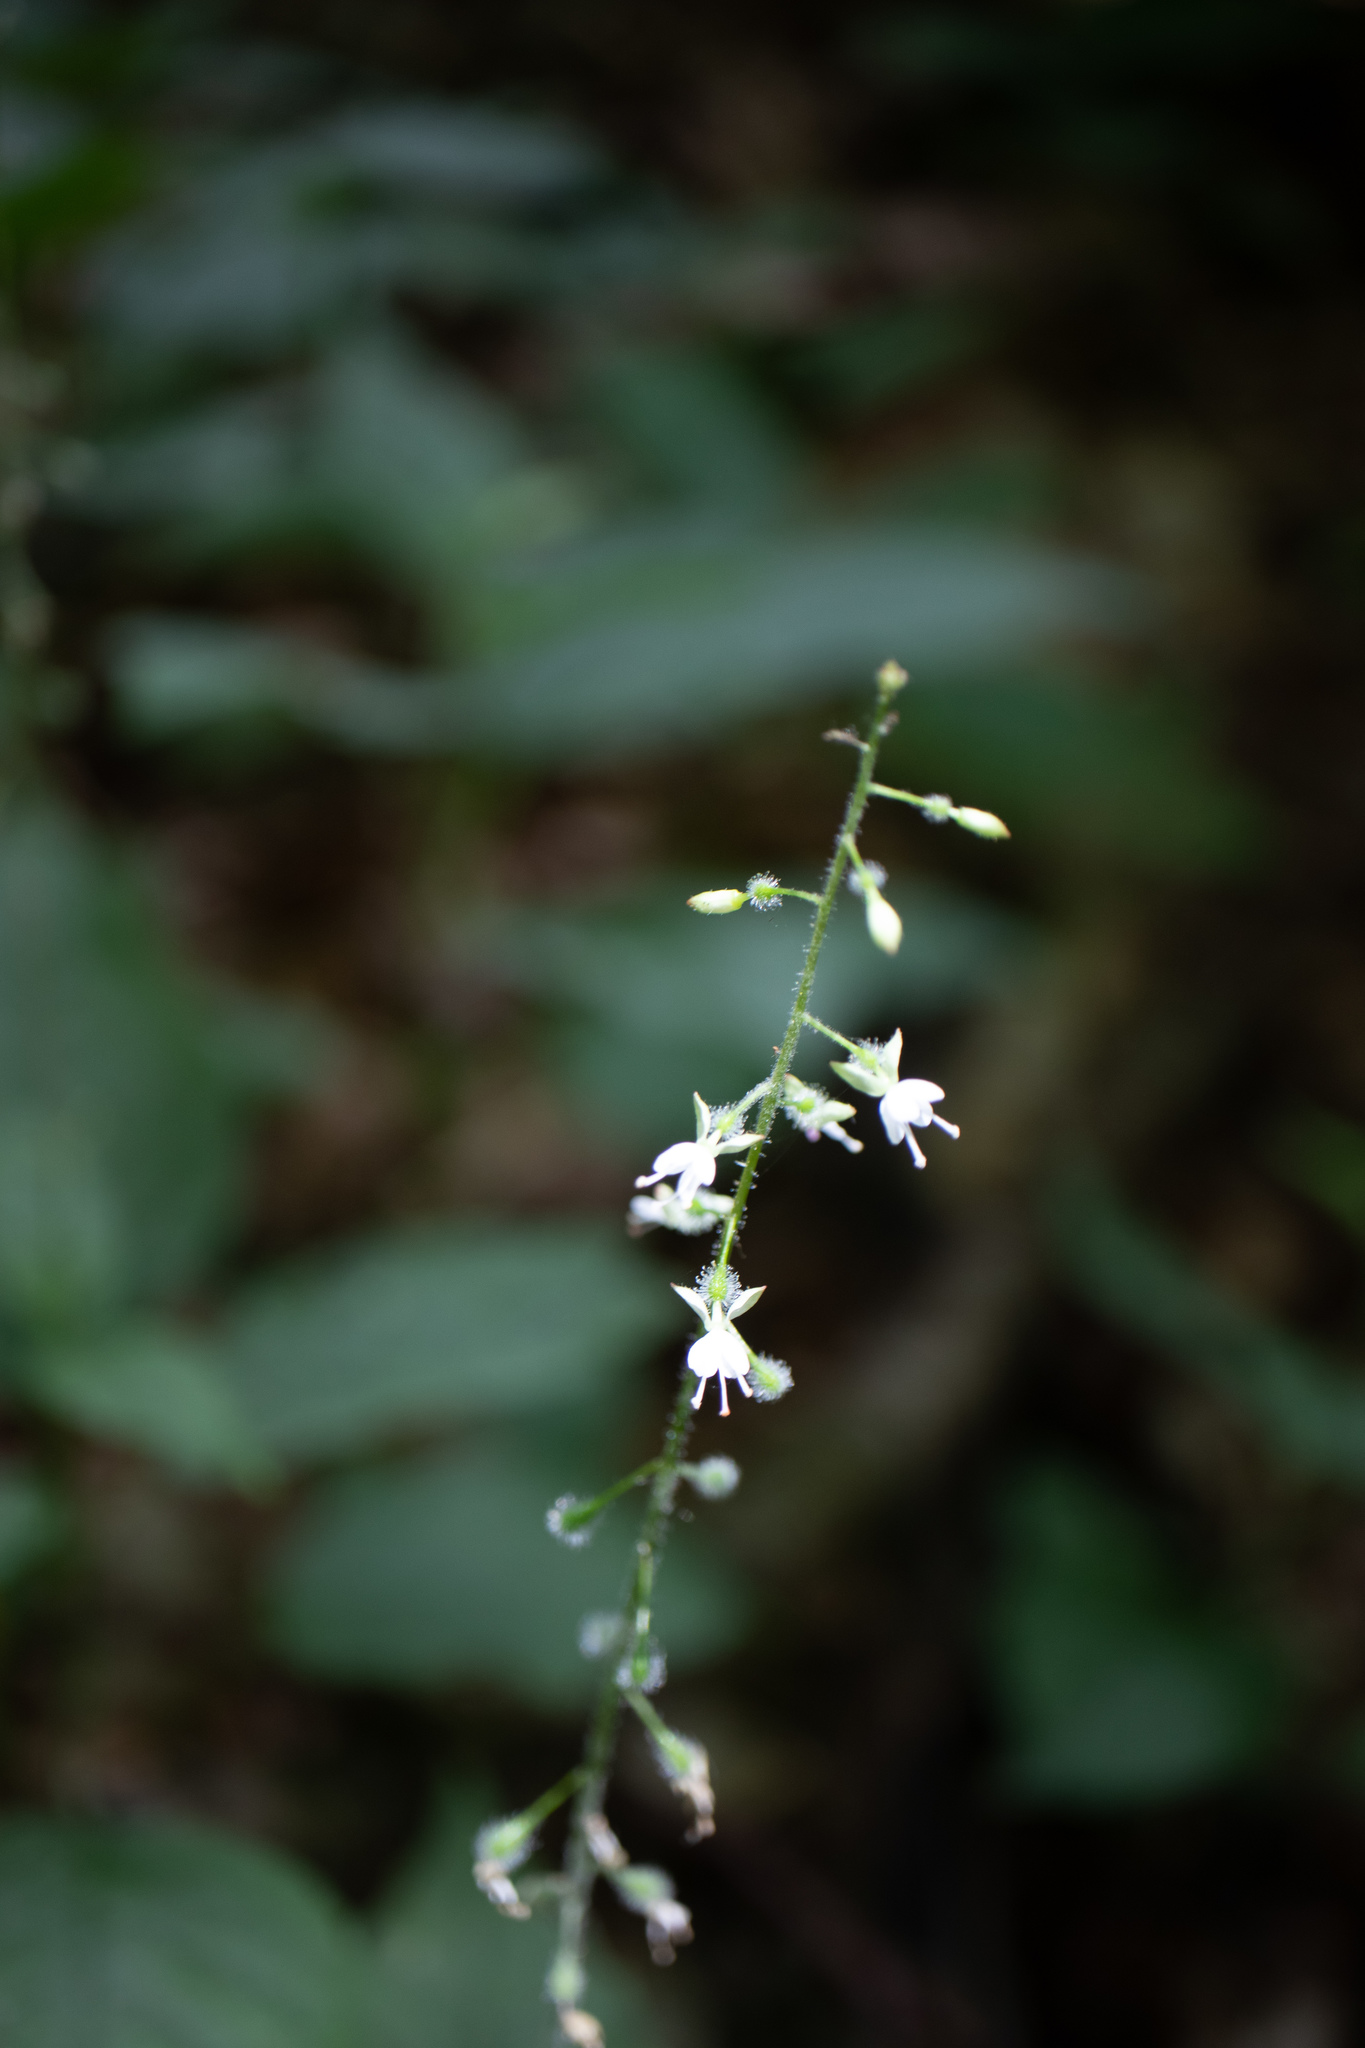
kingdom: Plantae
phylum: Tracheophyta
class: Magnoliopsida
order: Myrtales
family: Onagraceae
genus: Circaea
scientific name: Circaea lutetiana
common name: Enchanter's-nightshade
